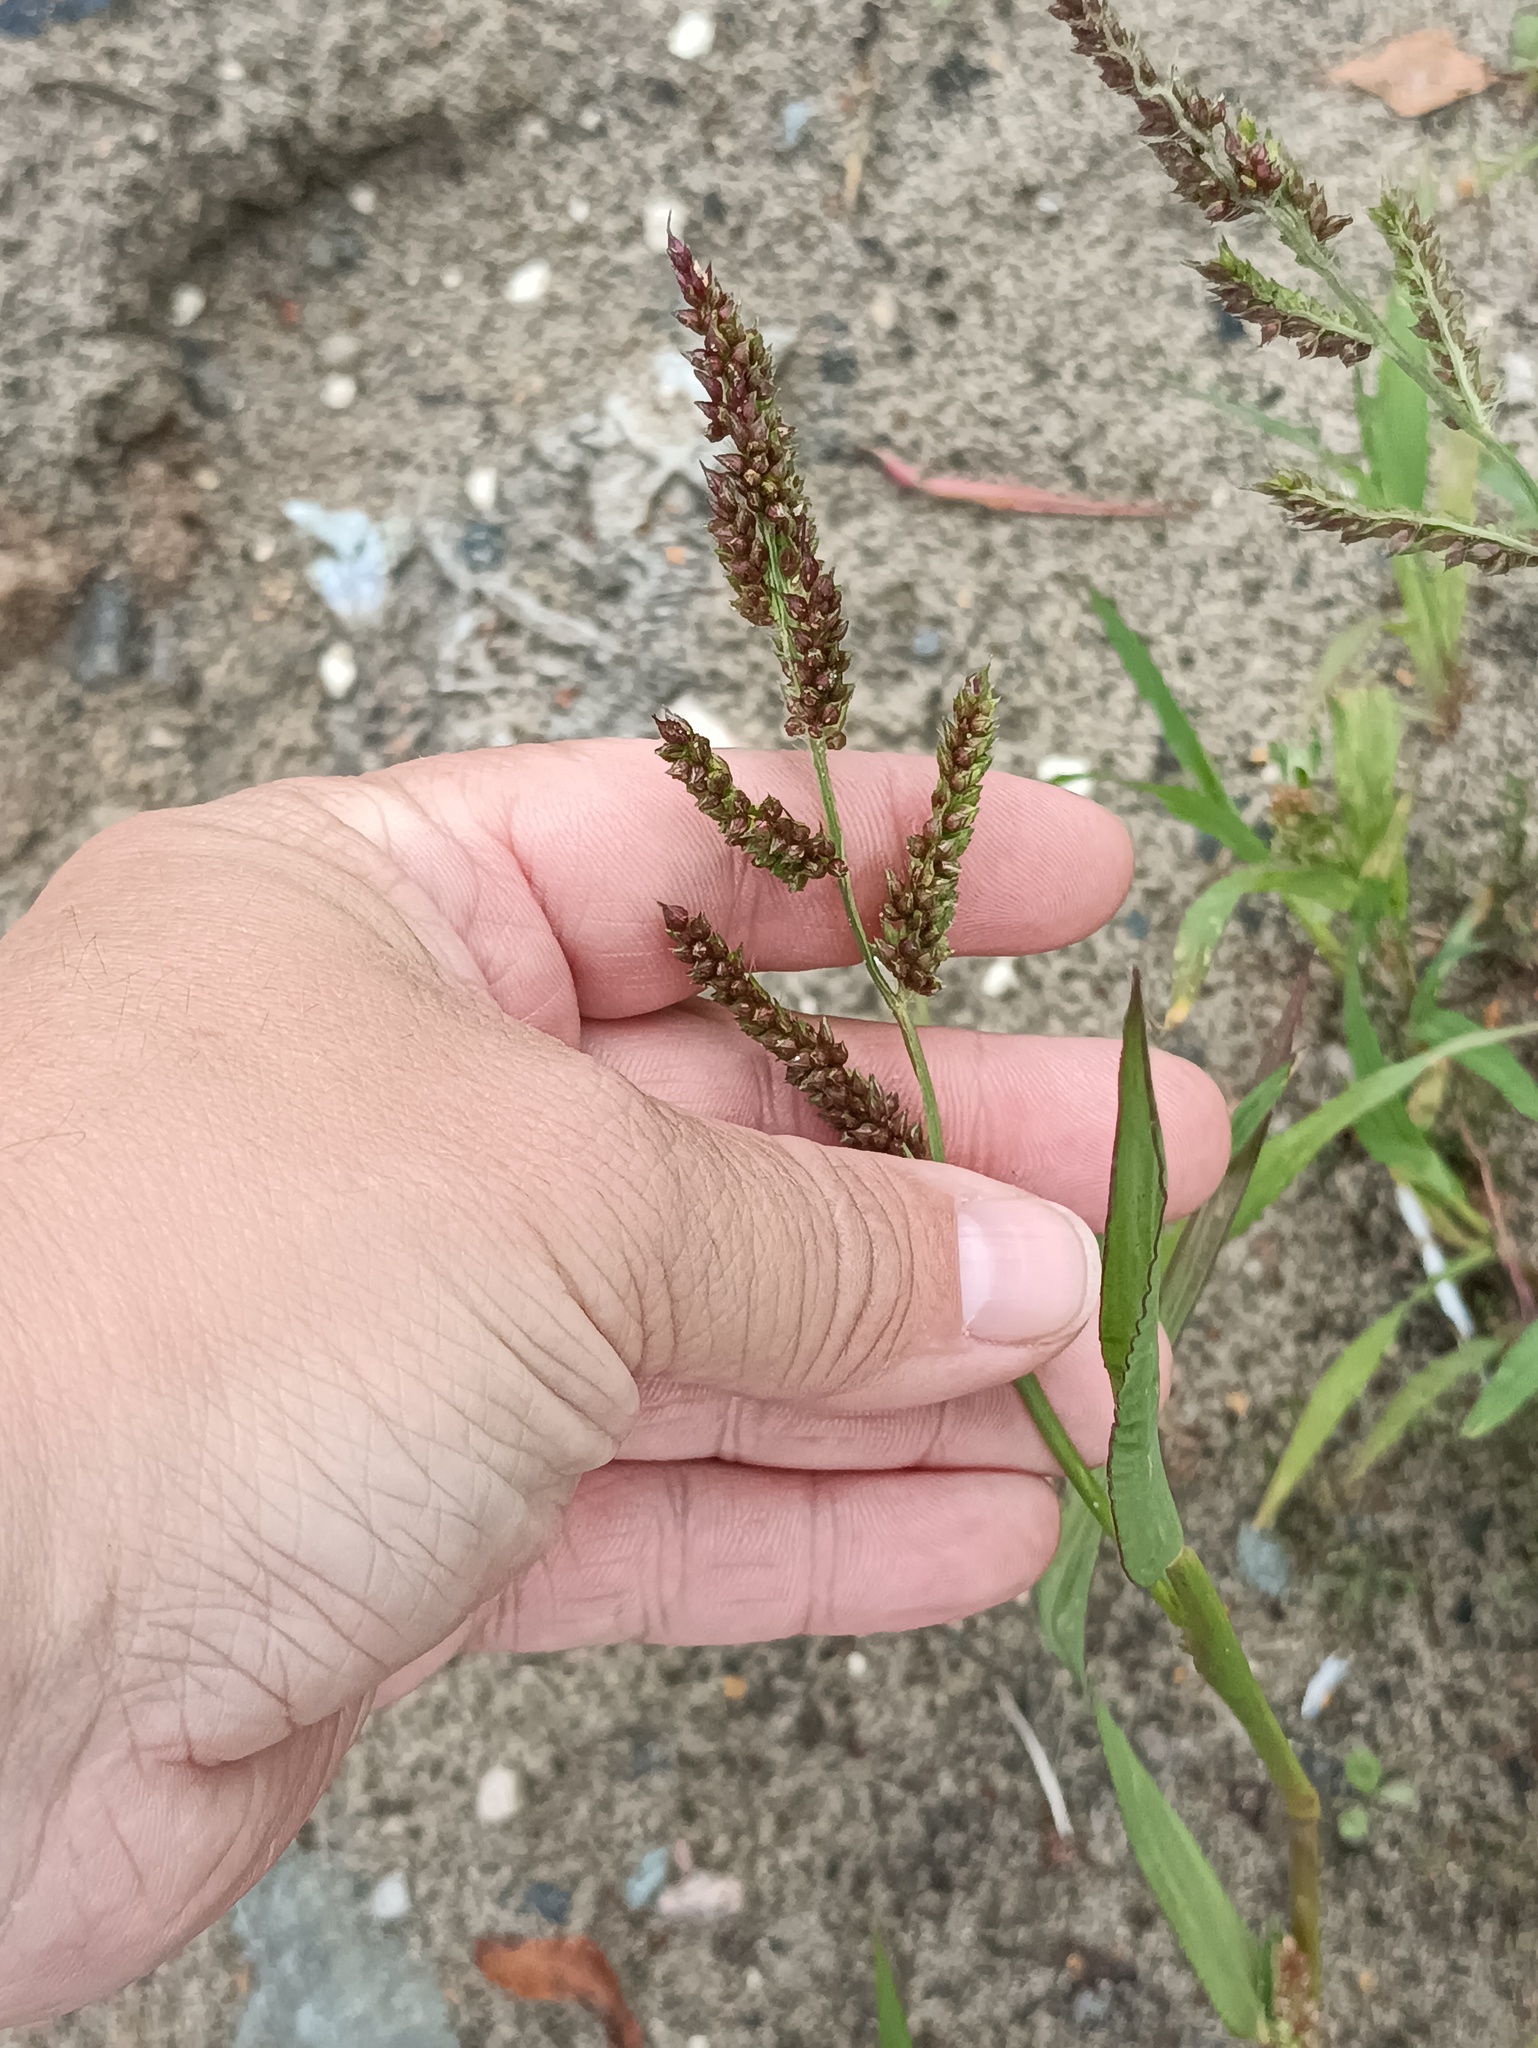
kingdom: Plantae
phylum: Tracheophyta
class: Liliopsida
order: Poales
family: Poaceae
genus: Echinochloa
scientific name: Echinochloa crus-galli
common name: Cockspur
